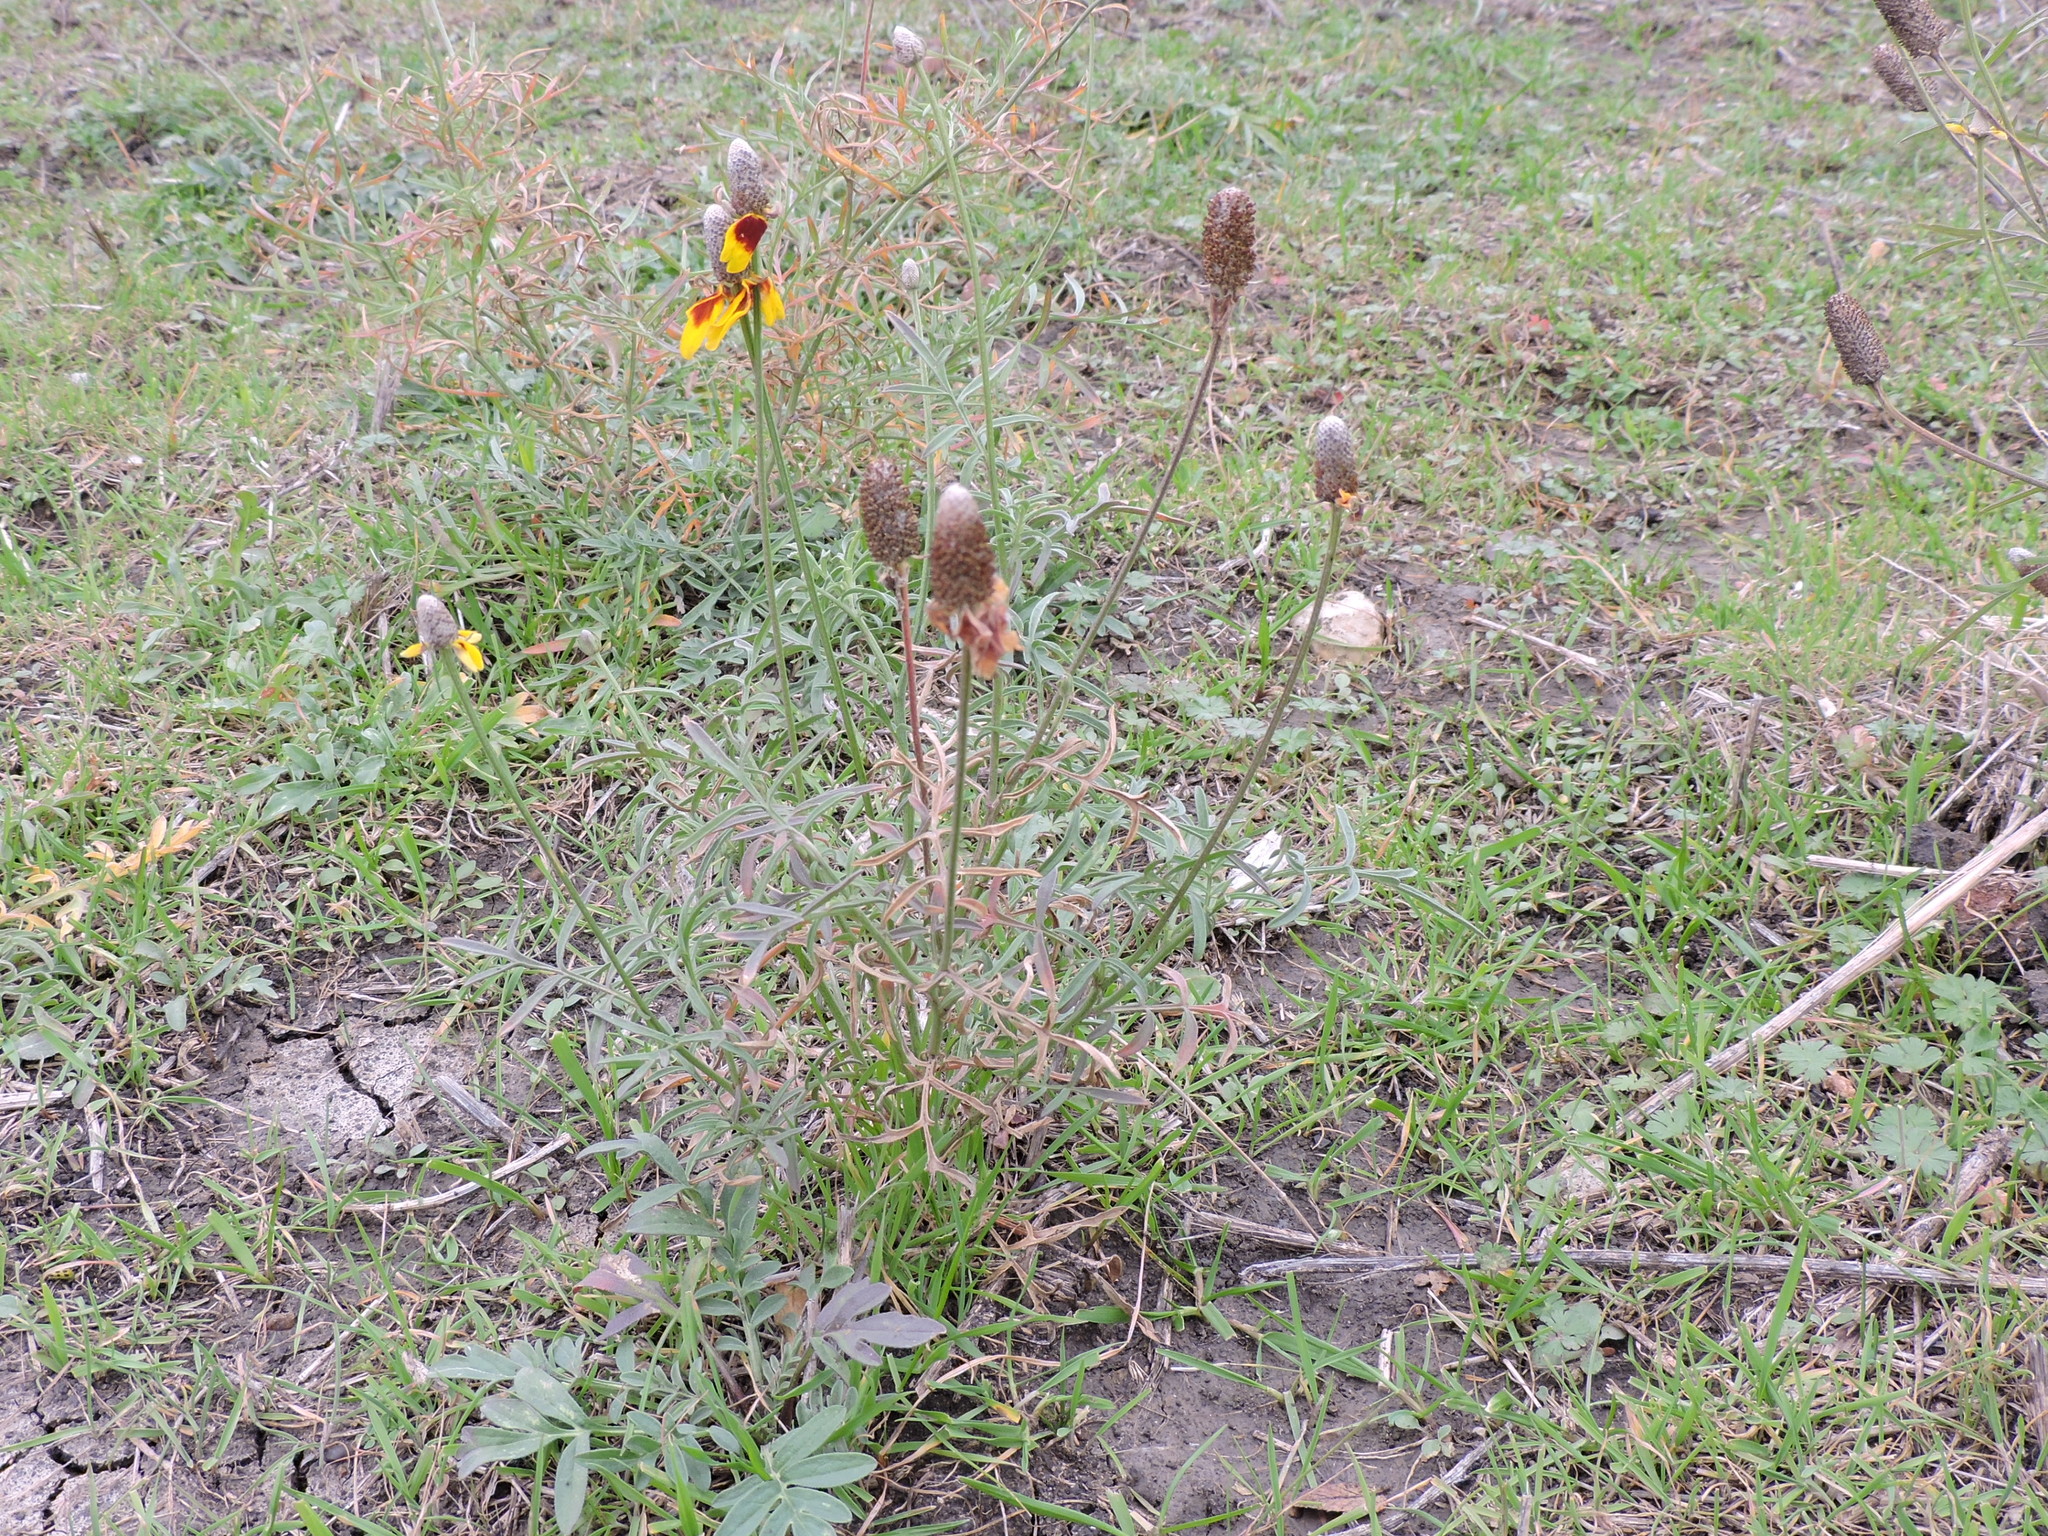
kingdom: Plantae
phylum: Tracheophyta
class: Magnoliopsida
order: Asterales
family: Asteraceae
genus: Ratibida
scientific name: Ratibida columnifera
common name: Prairie coneflower
